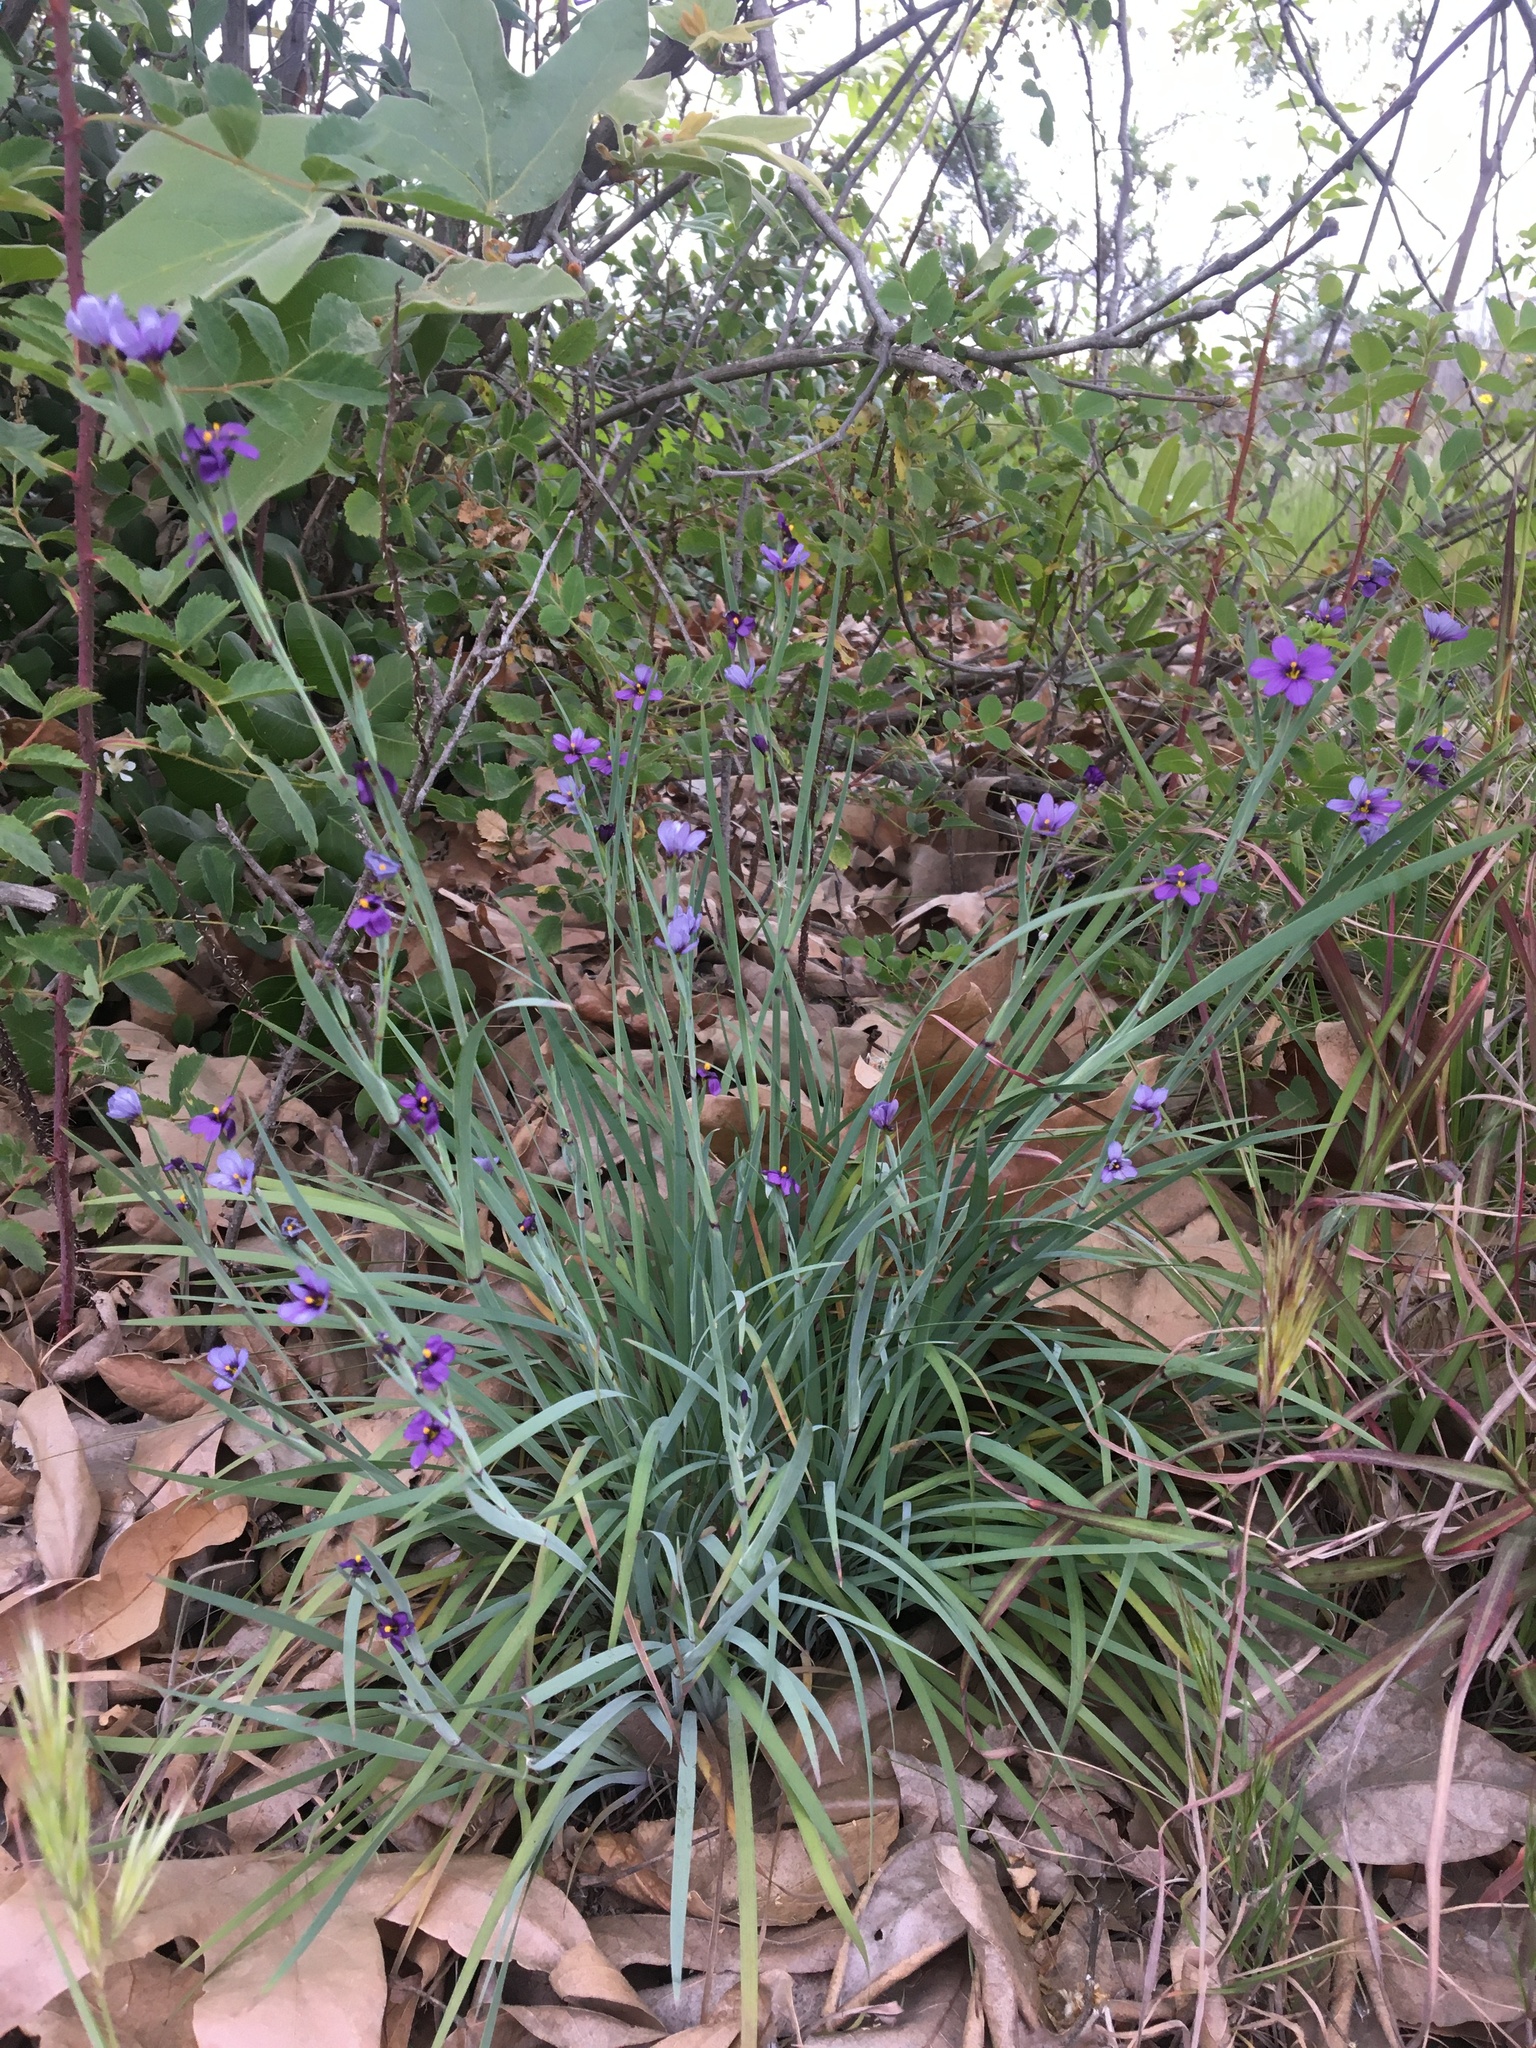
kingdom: Plantae
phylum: Tracheophyta
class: Liliopsida
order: Asparagales
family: Iridaceae
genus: Sisyrinchium
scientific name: Sisyrinchium bellum
